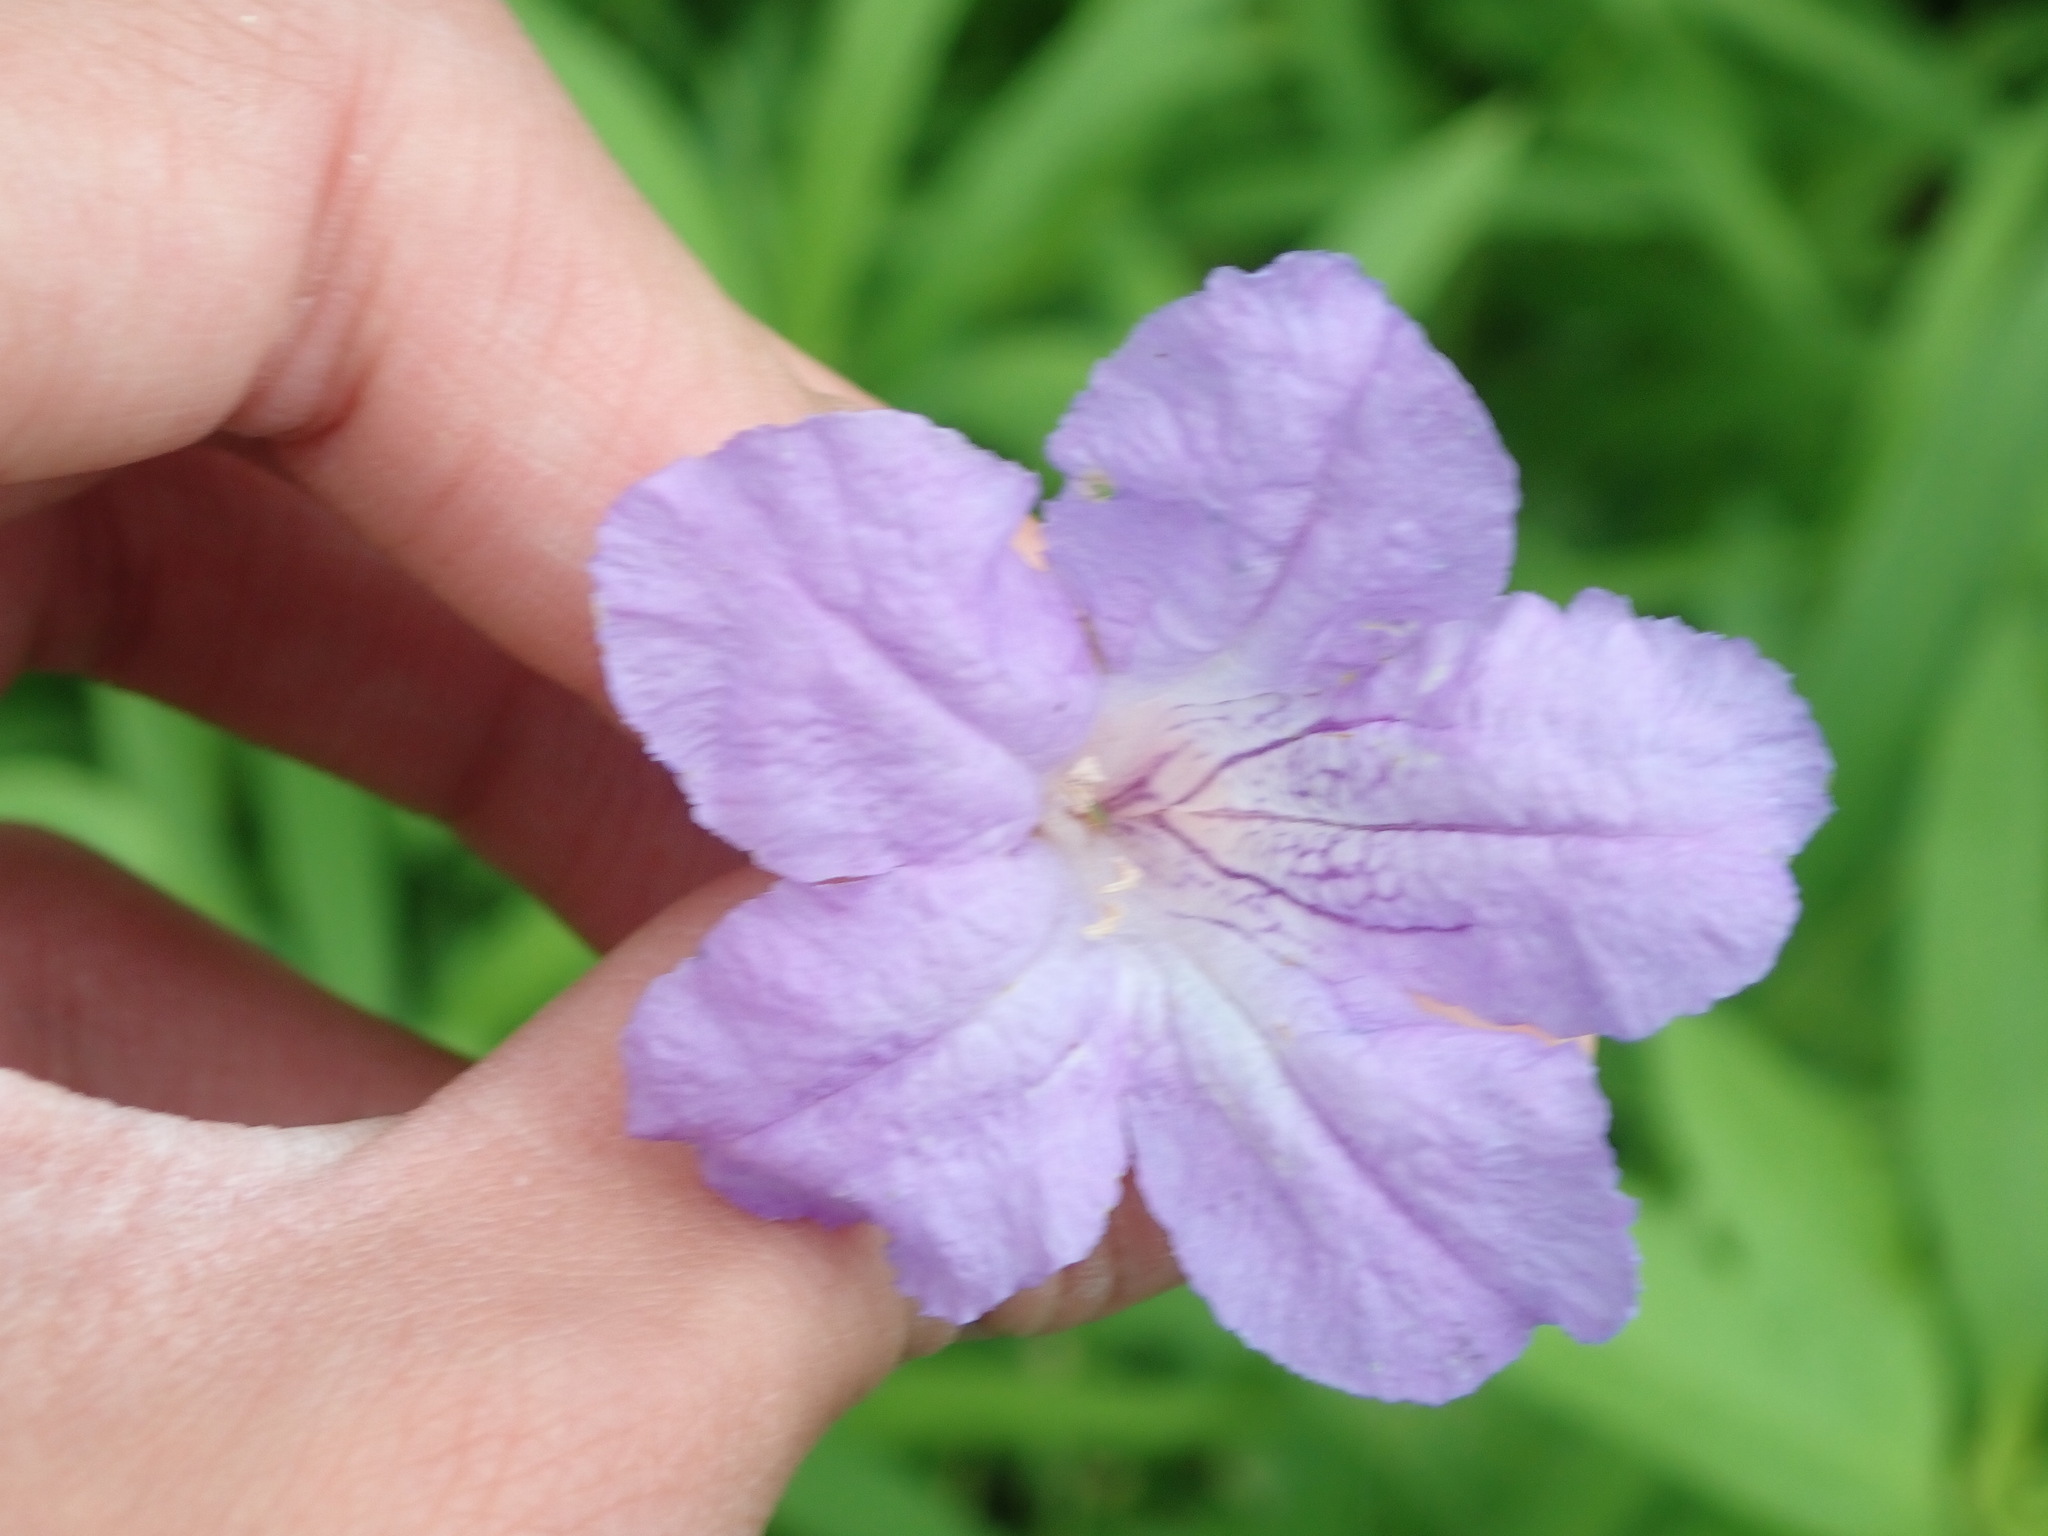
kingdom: Plantae
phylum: Tracheophyta
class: Magnoliopsida
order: Lamiales
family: Acanthaceae
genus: Ruellia
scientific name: Ruellia humilis
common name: Fringe-leaf ruellia
